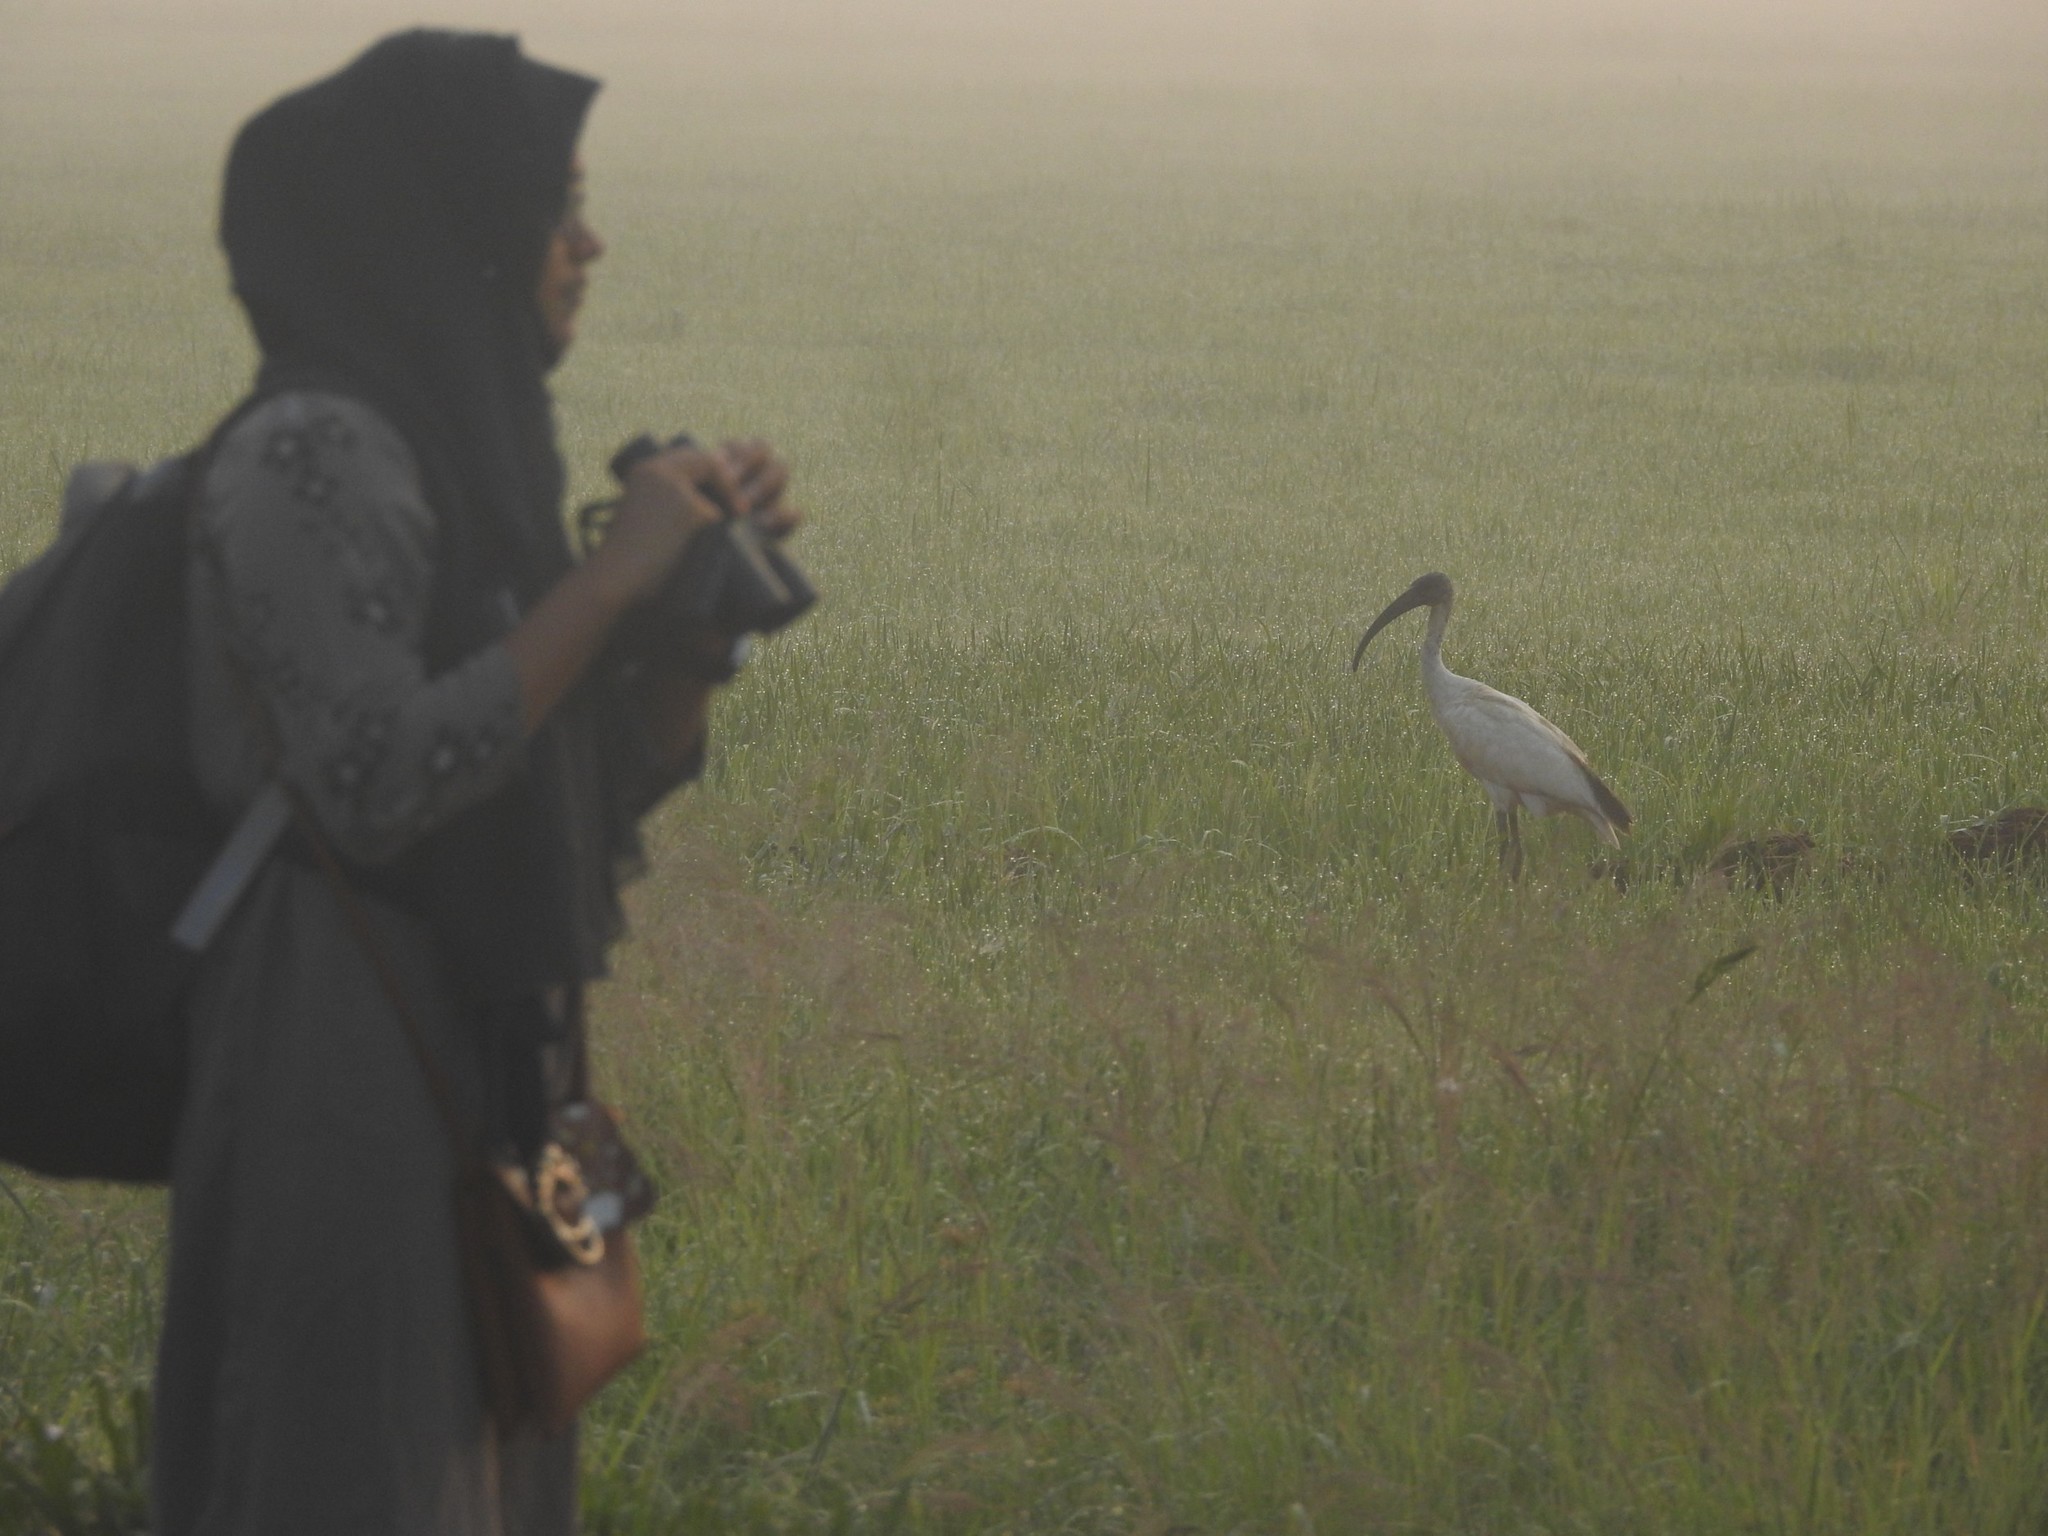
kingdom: Animalia
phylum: Chordata
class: Aves
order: Pelecaniformes
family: Threskiornithidae
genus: Threskiornis
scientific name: Threskiornis melanocephalus
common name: Black-headed ibis
